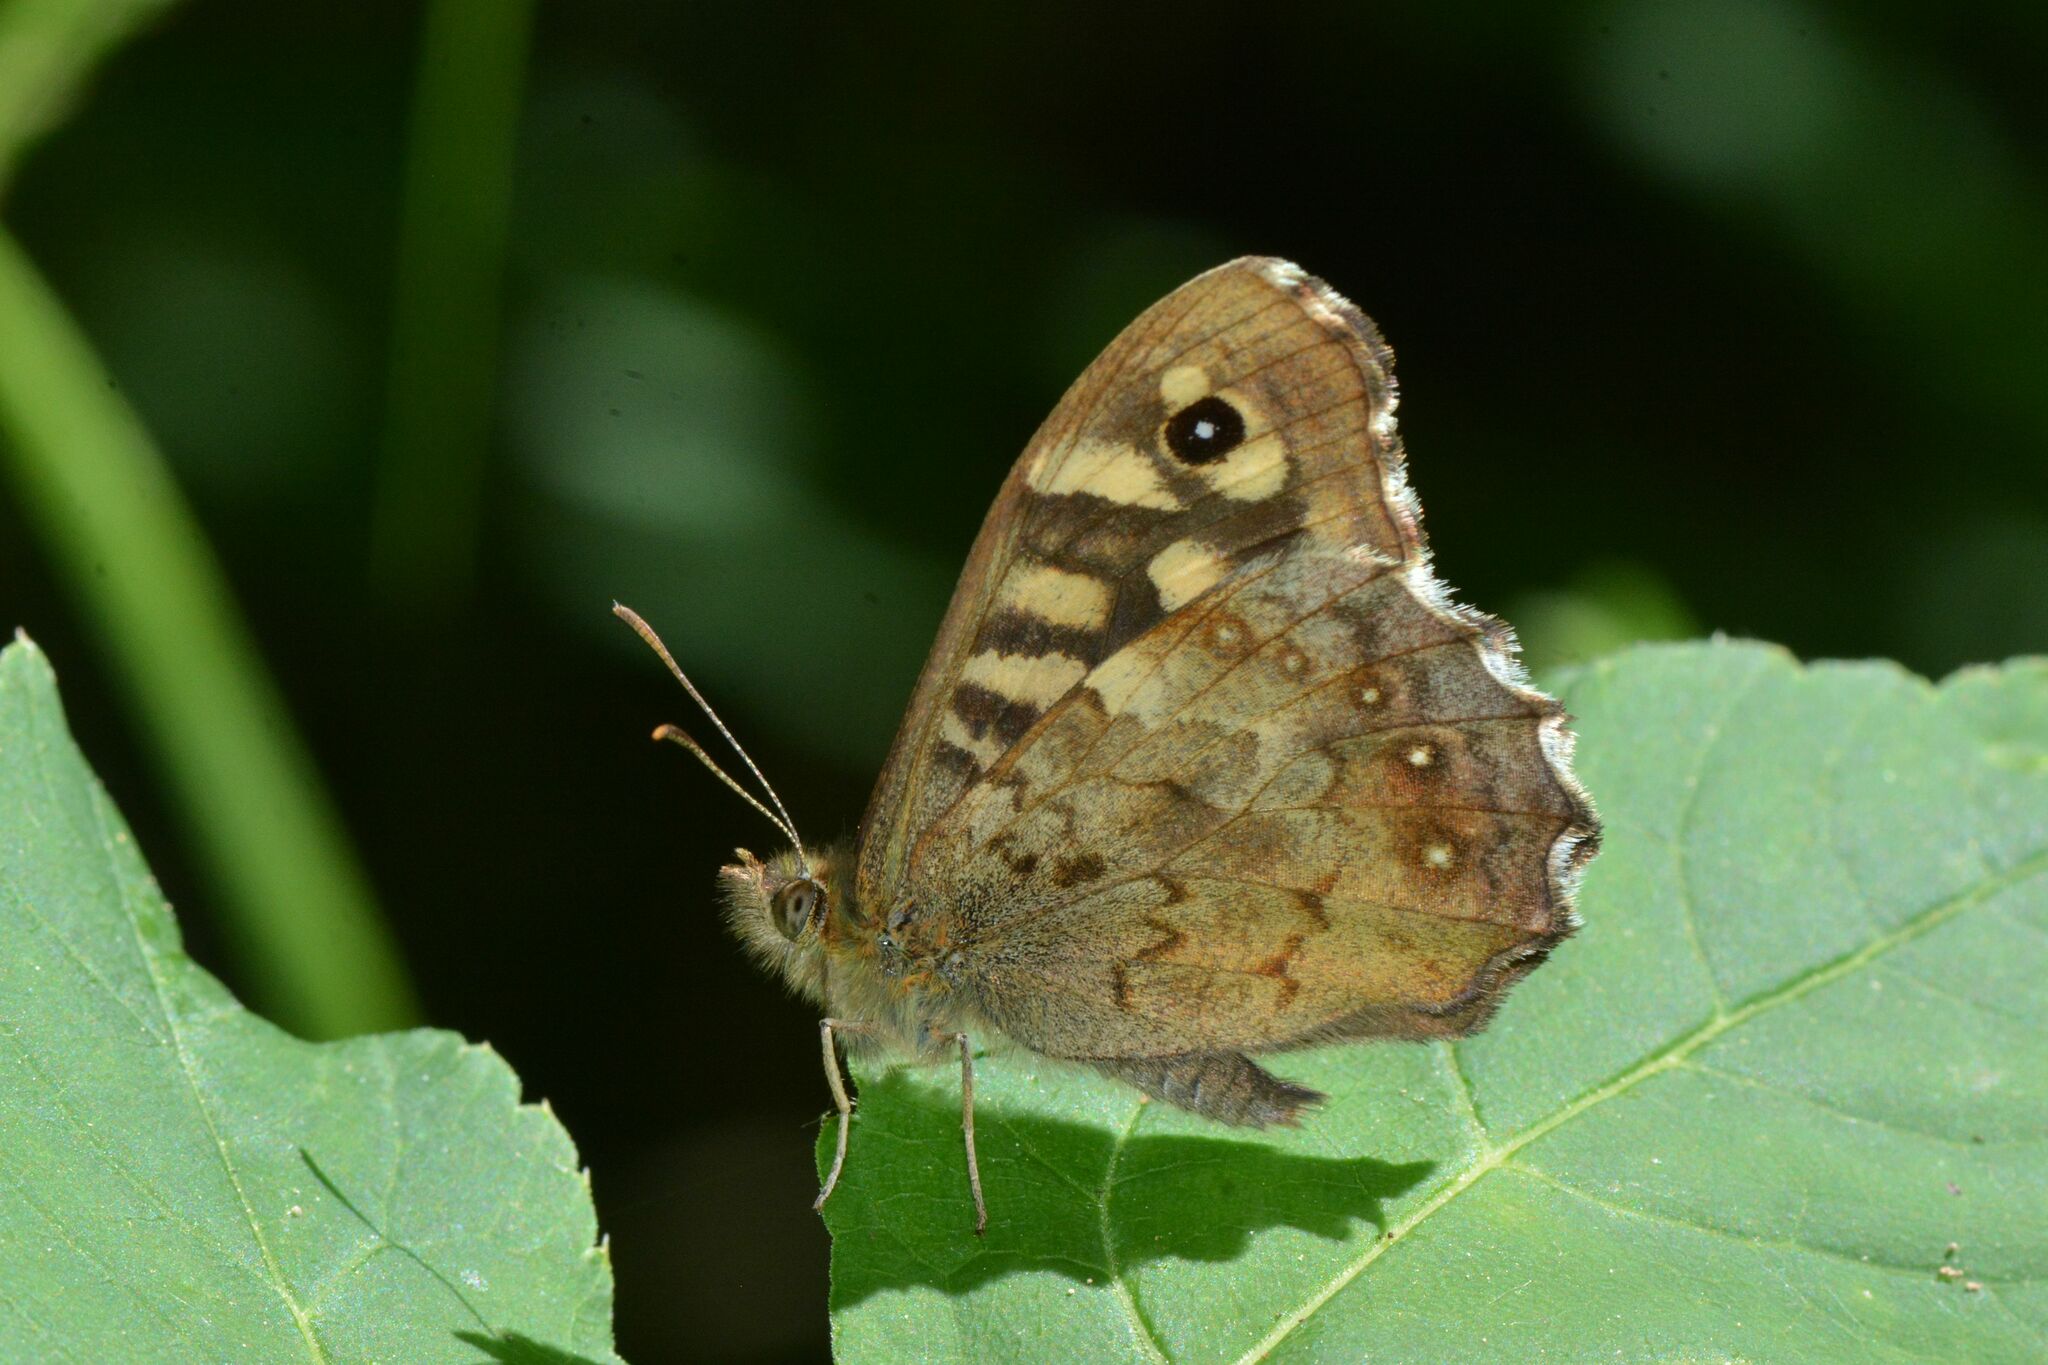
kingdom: Animalia
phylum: Arthropoda
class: Insecta
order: Lepidoptera
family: Nymphalidae
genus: Pararge
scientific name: Pararge aegeria
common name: Speckled wood
